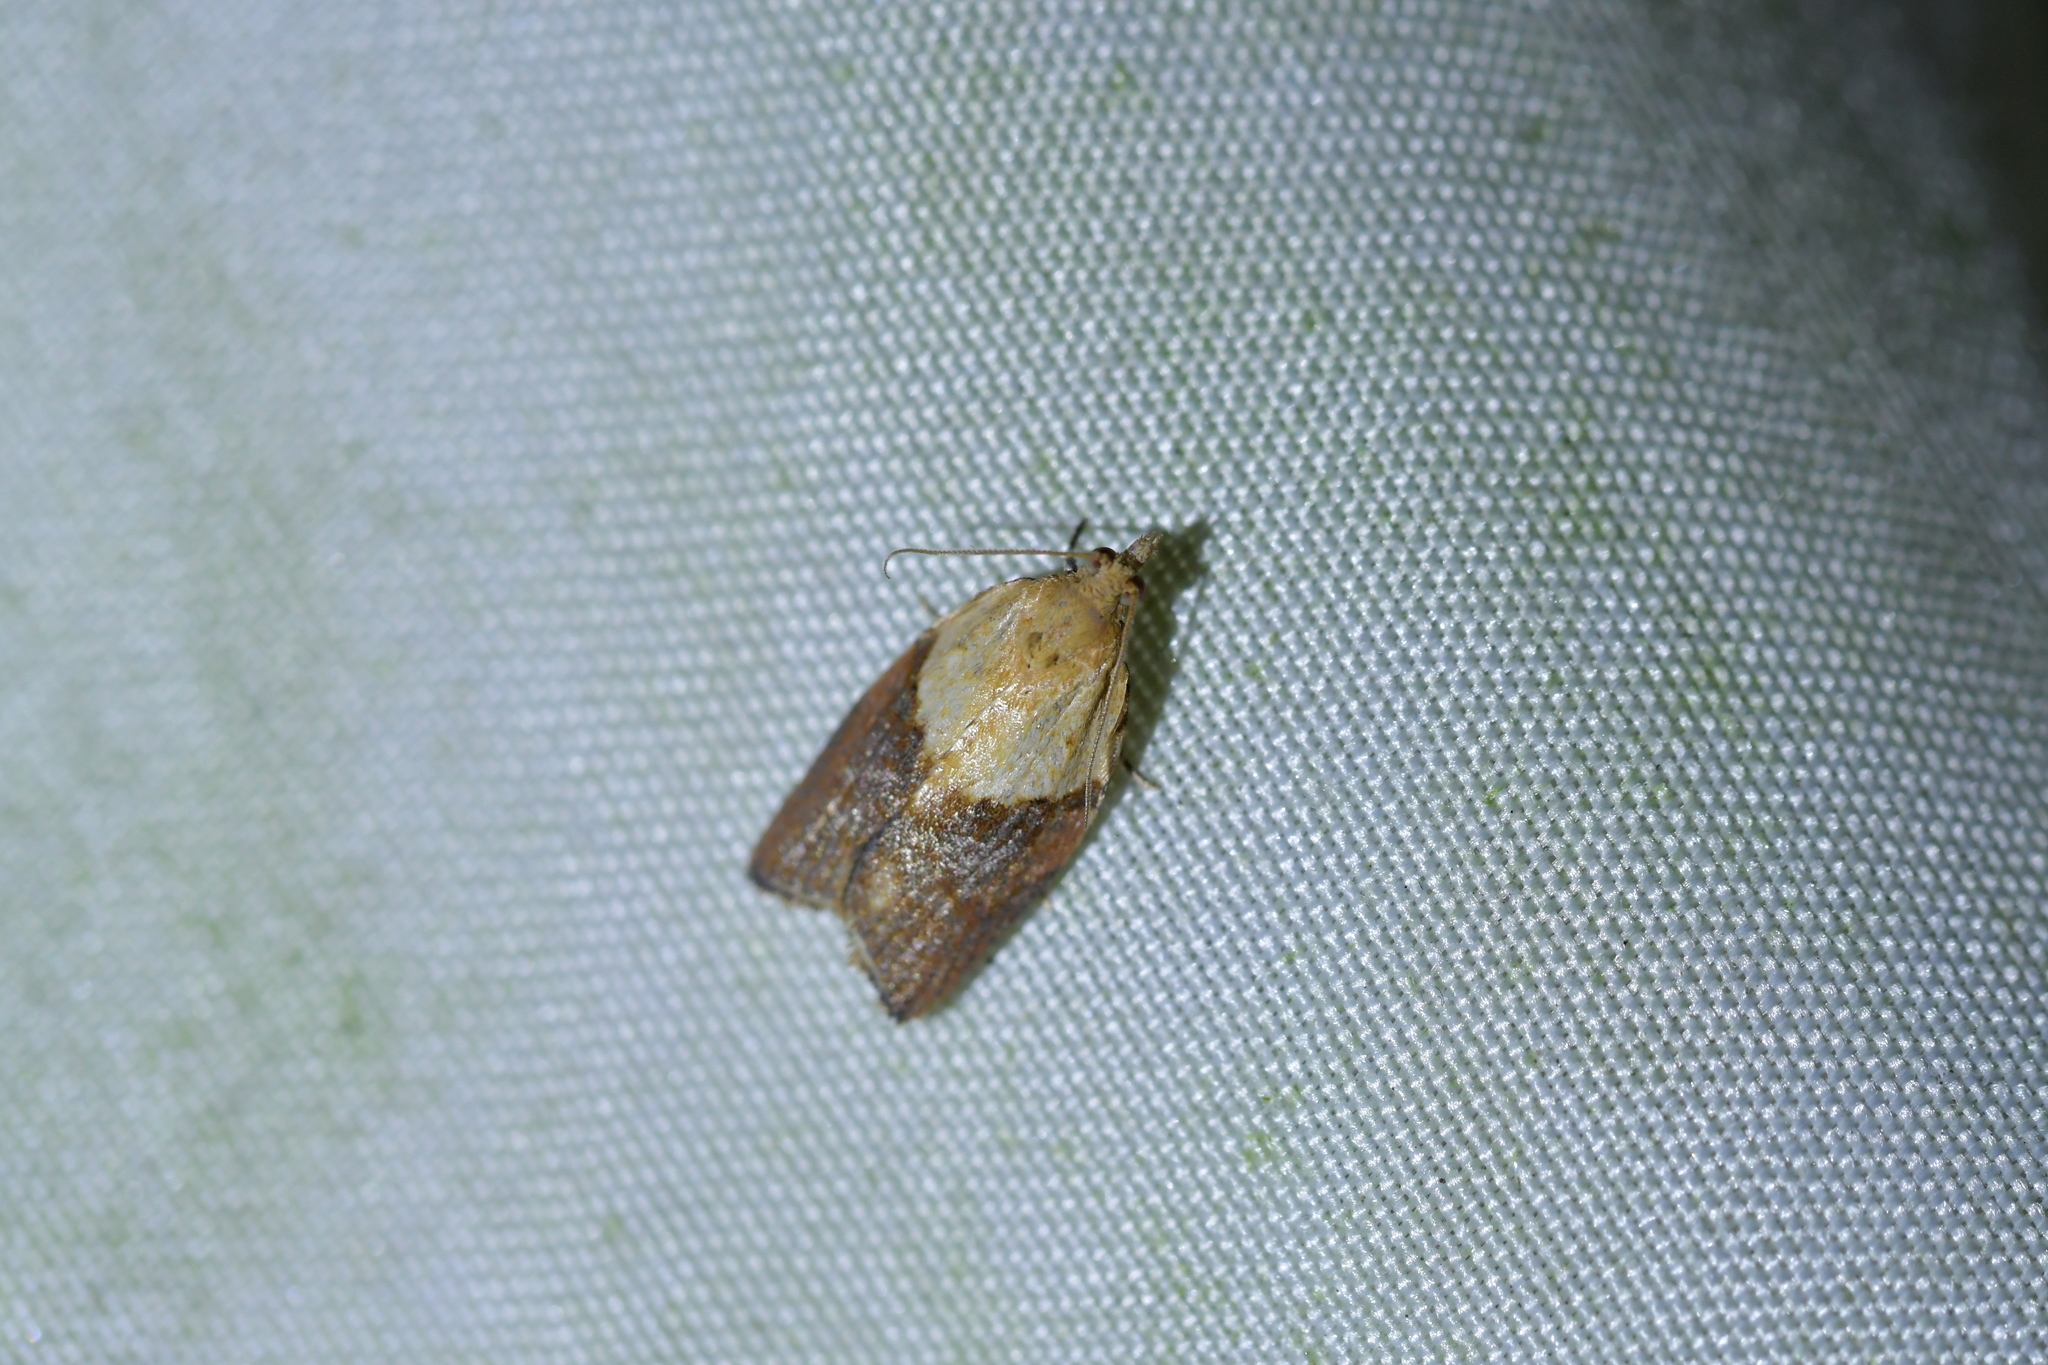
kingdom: Animalia
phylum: Arthropoda
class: Insecta
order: Lepidoptera
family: Tortricidae
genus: Epiphyas
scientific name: Epiphyas postvittana
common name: Light brown apple moth
